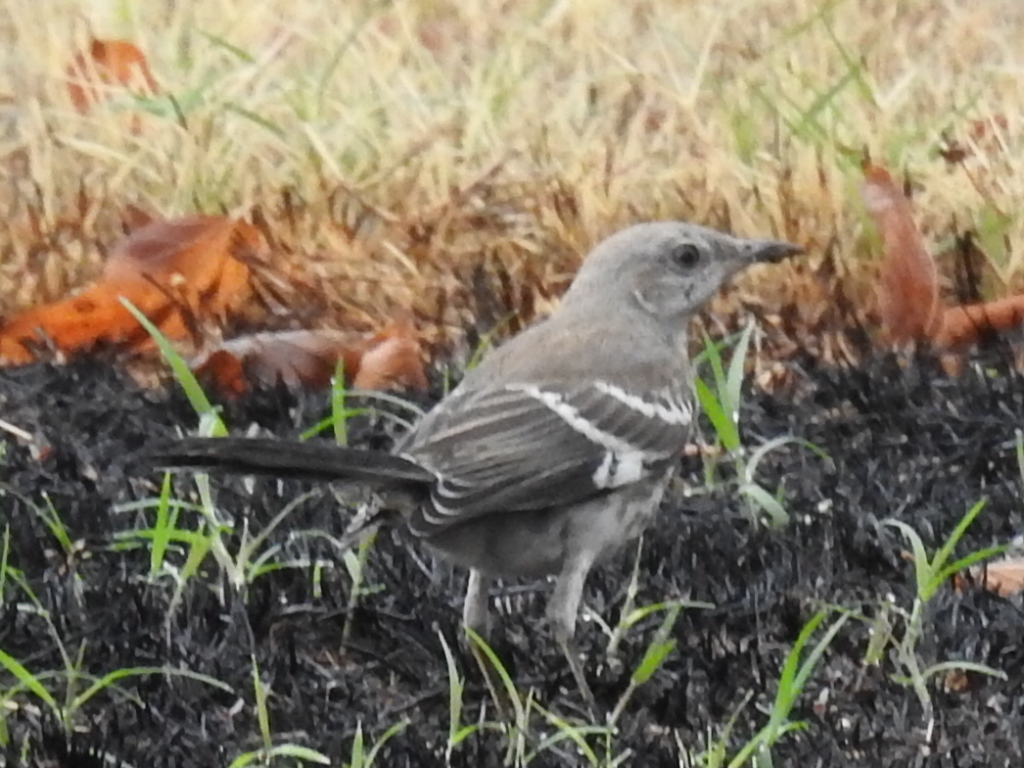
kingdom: Animalia
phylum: Chordata
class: Aves
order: Passeriformes
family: Mimidae
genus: Mimus
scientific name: Mimus polyglottos
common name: Northern mockingbird
